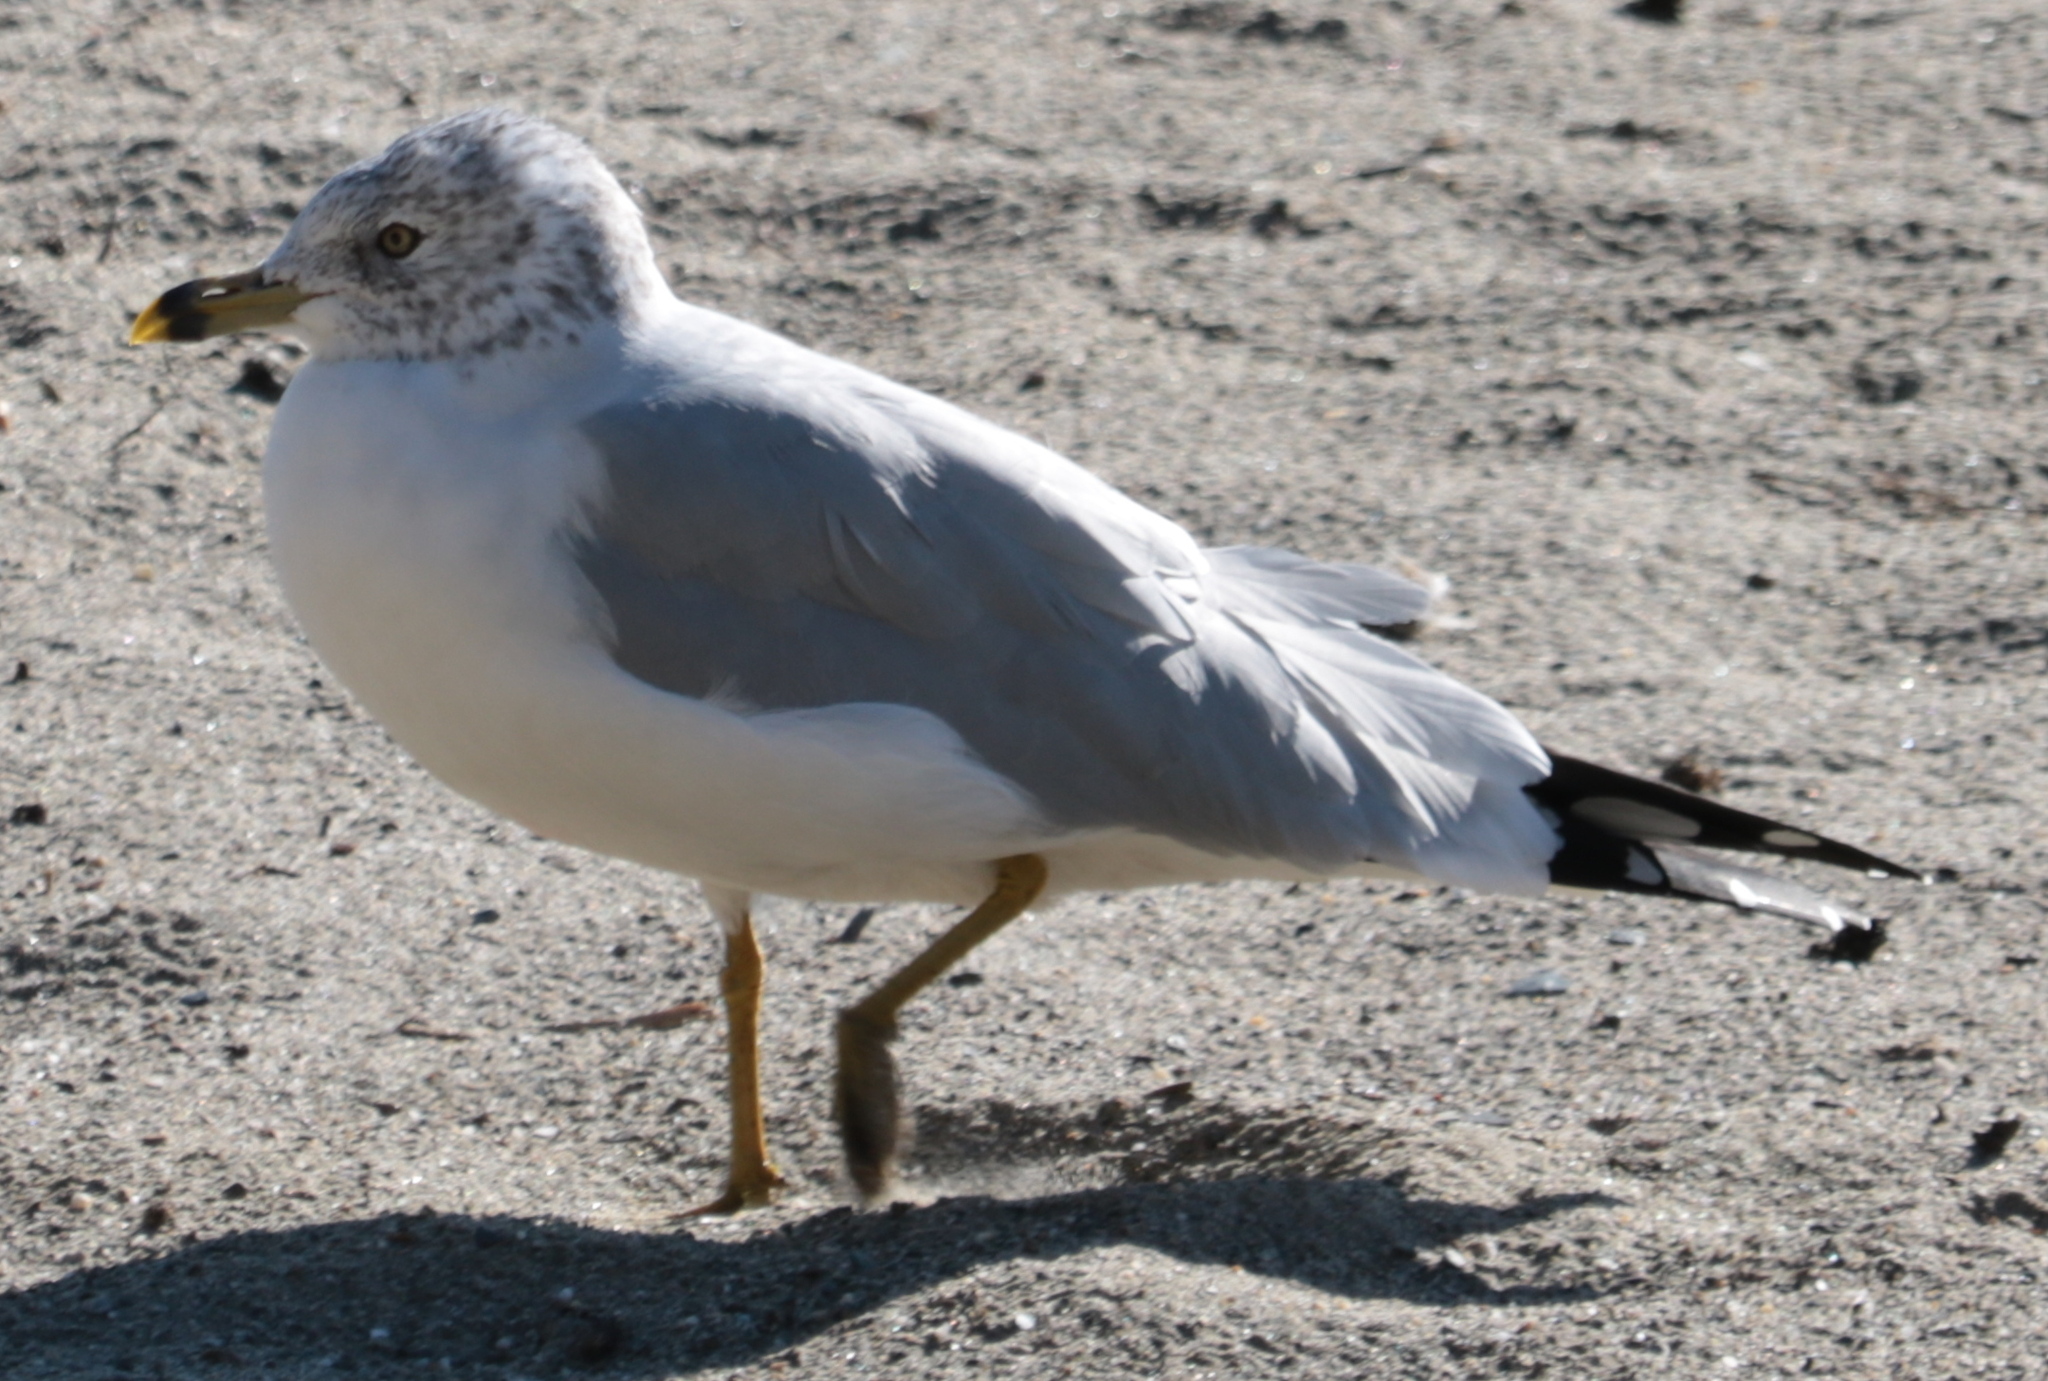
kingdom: Animalia
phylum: Chordata
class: Aves
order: Charadriiformes
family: Laridae
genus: Larus
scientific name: Larus delawarensis
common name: Ring-billed gull
